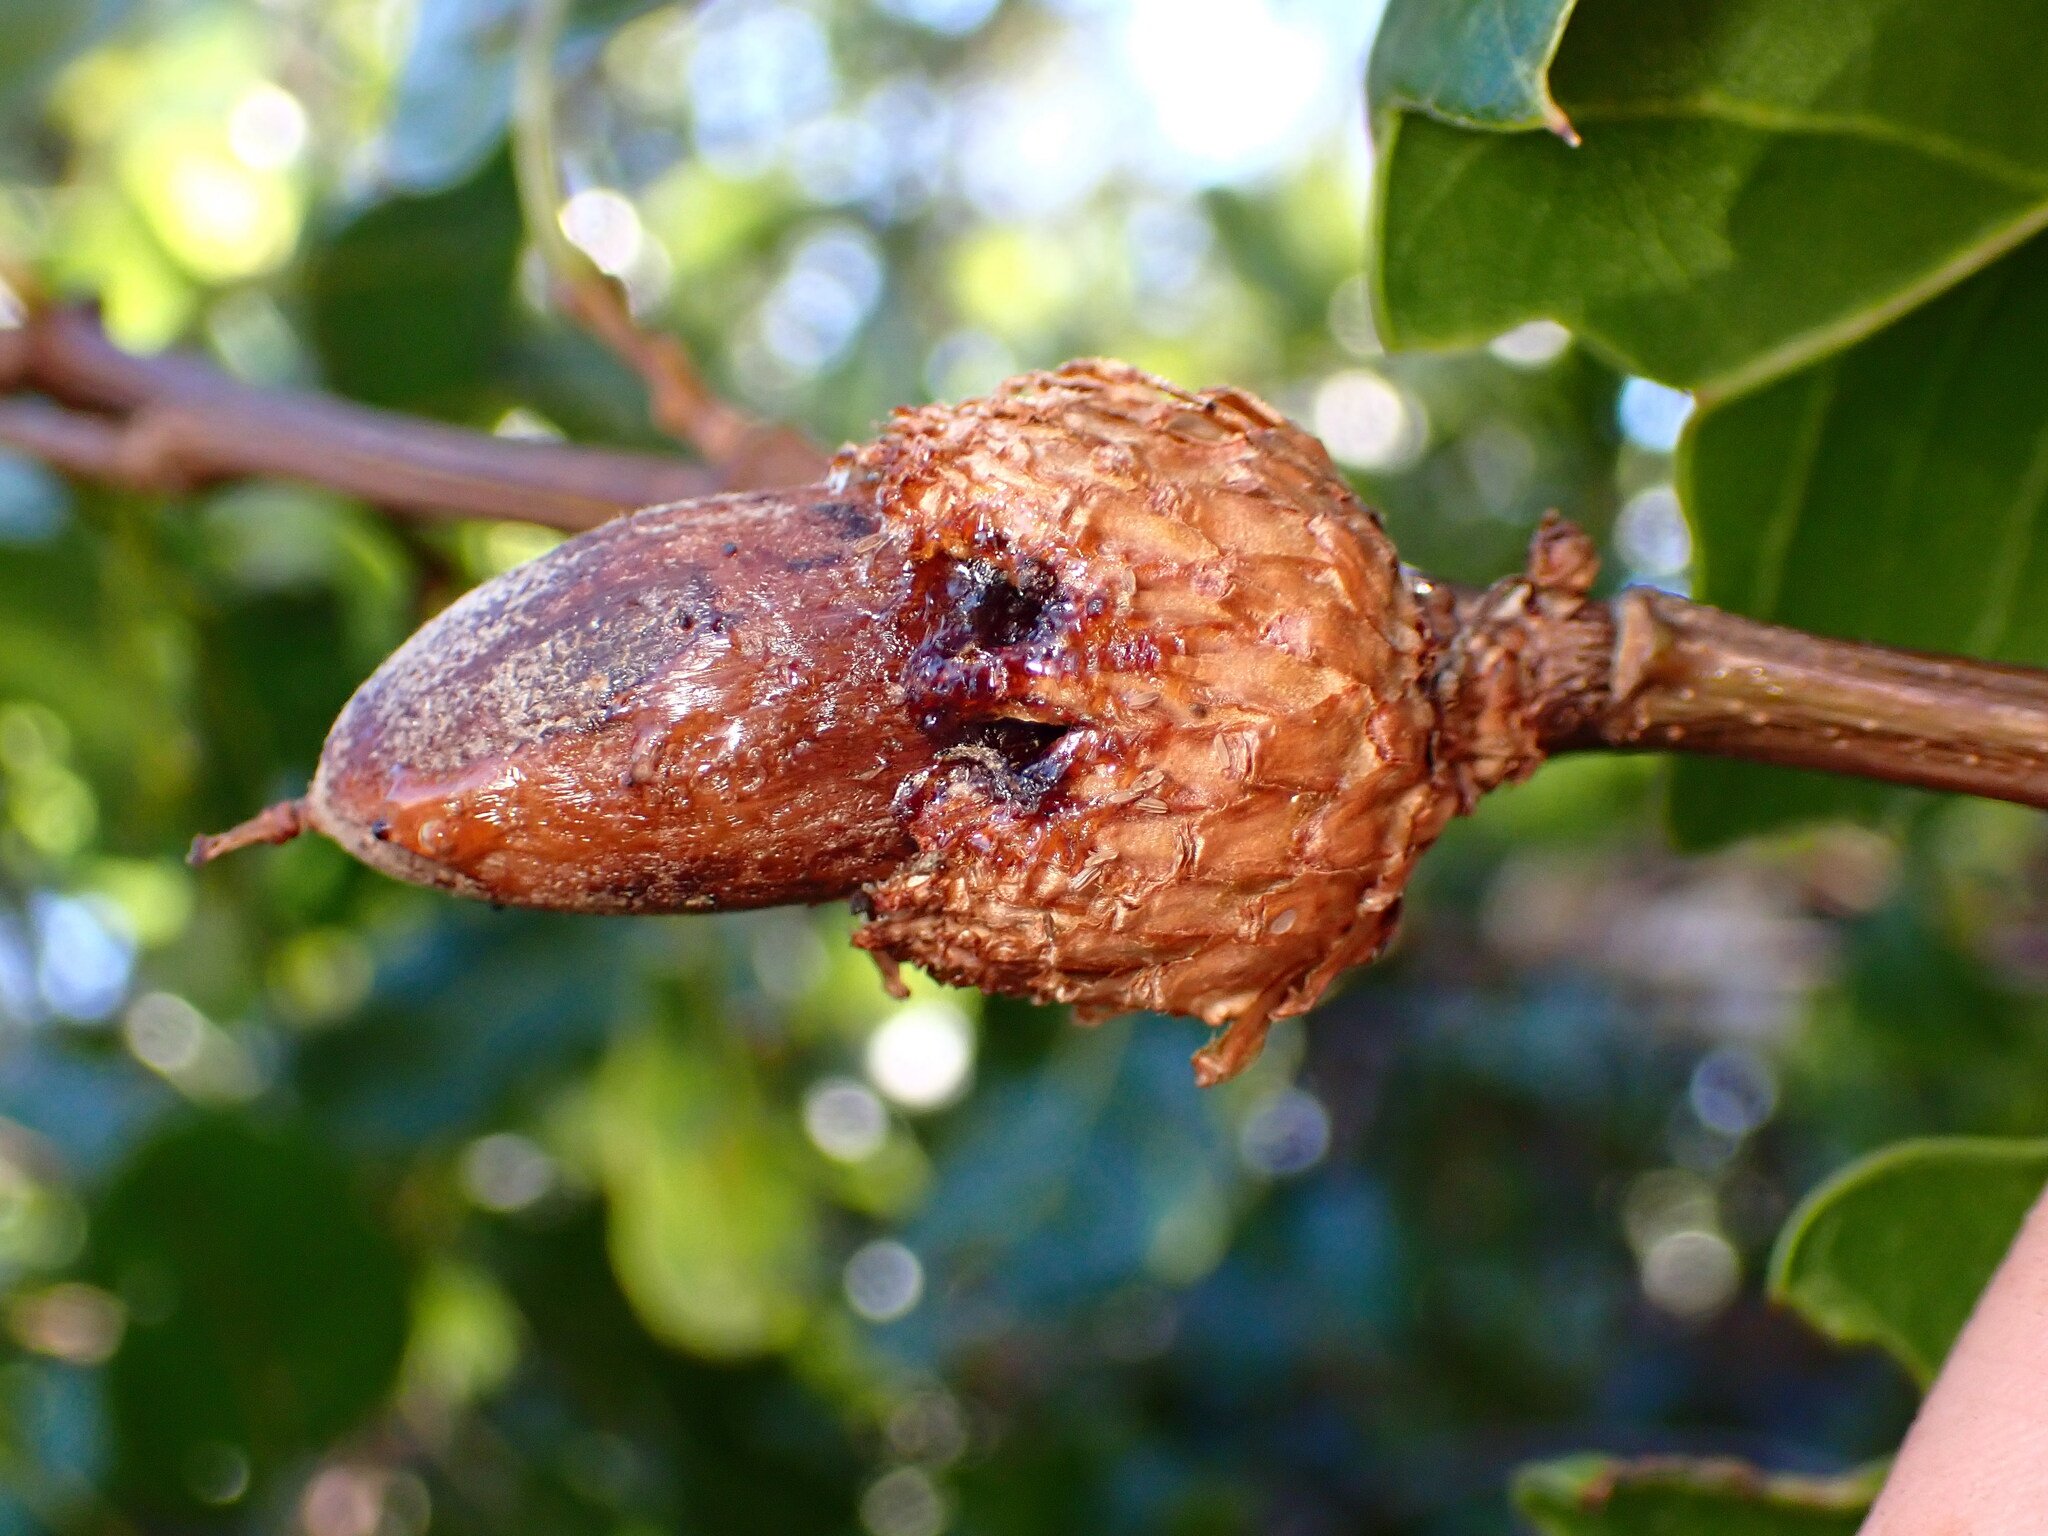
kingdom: Bacteria
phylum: Proteobacteria
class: Gammaproteobacteria
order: Enterobacterales
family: Enterobacteriaceae
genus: Lonsdalea
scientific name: Lonsdalea quercina
